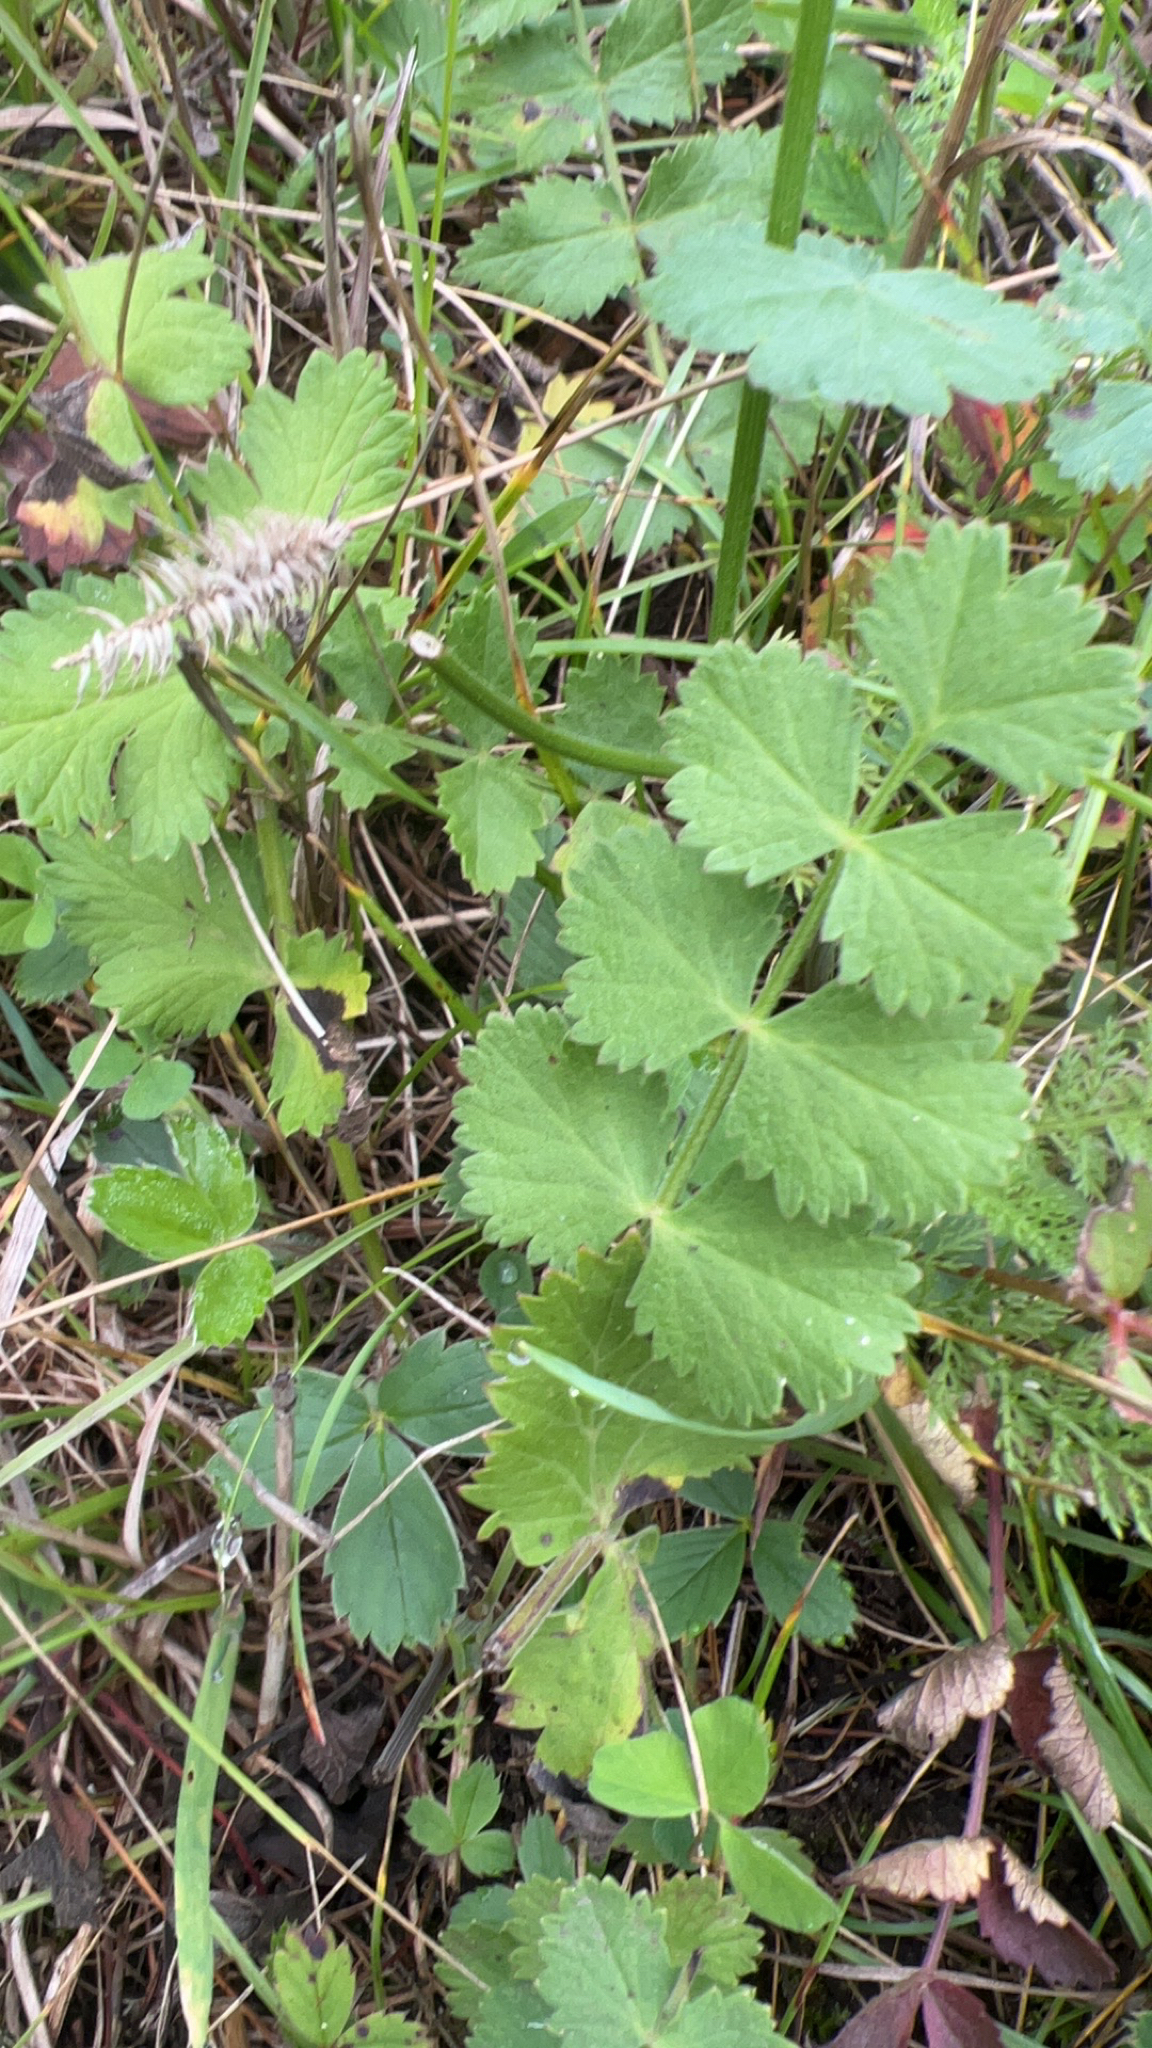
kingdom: Plantae
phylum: Tracheophyta
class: Magnoliopsida
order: Apiales
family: Apiaceae
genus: Pimpinella
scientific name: Pimpinella saxifraga
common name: Burnet-saxifrage
